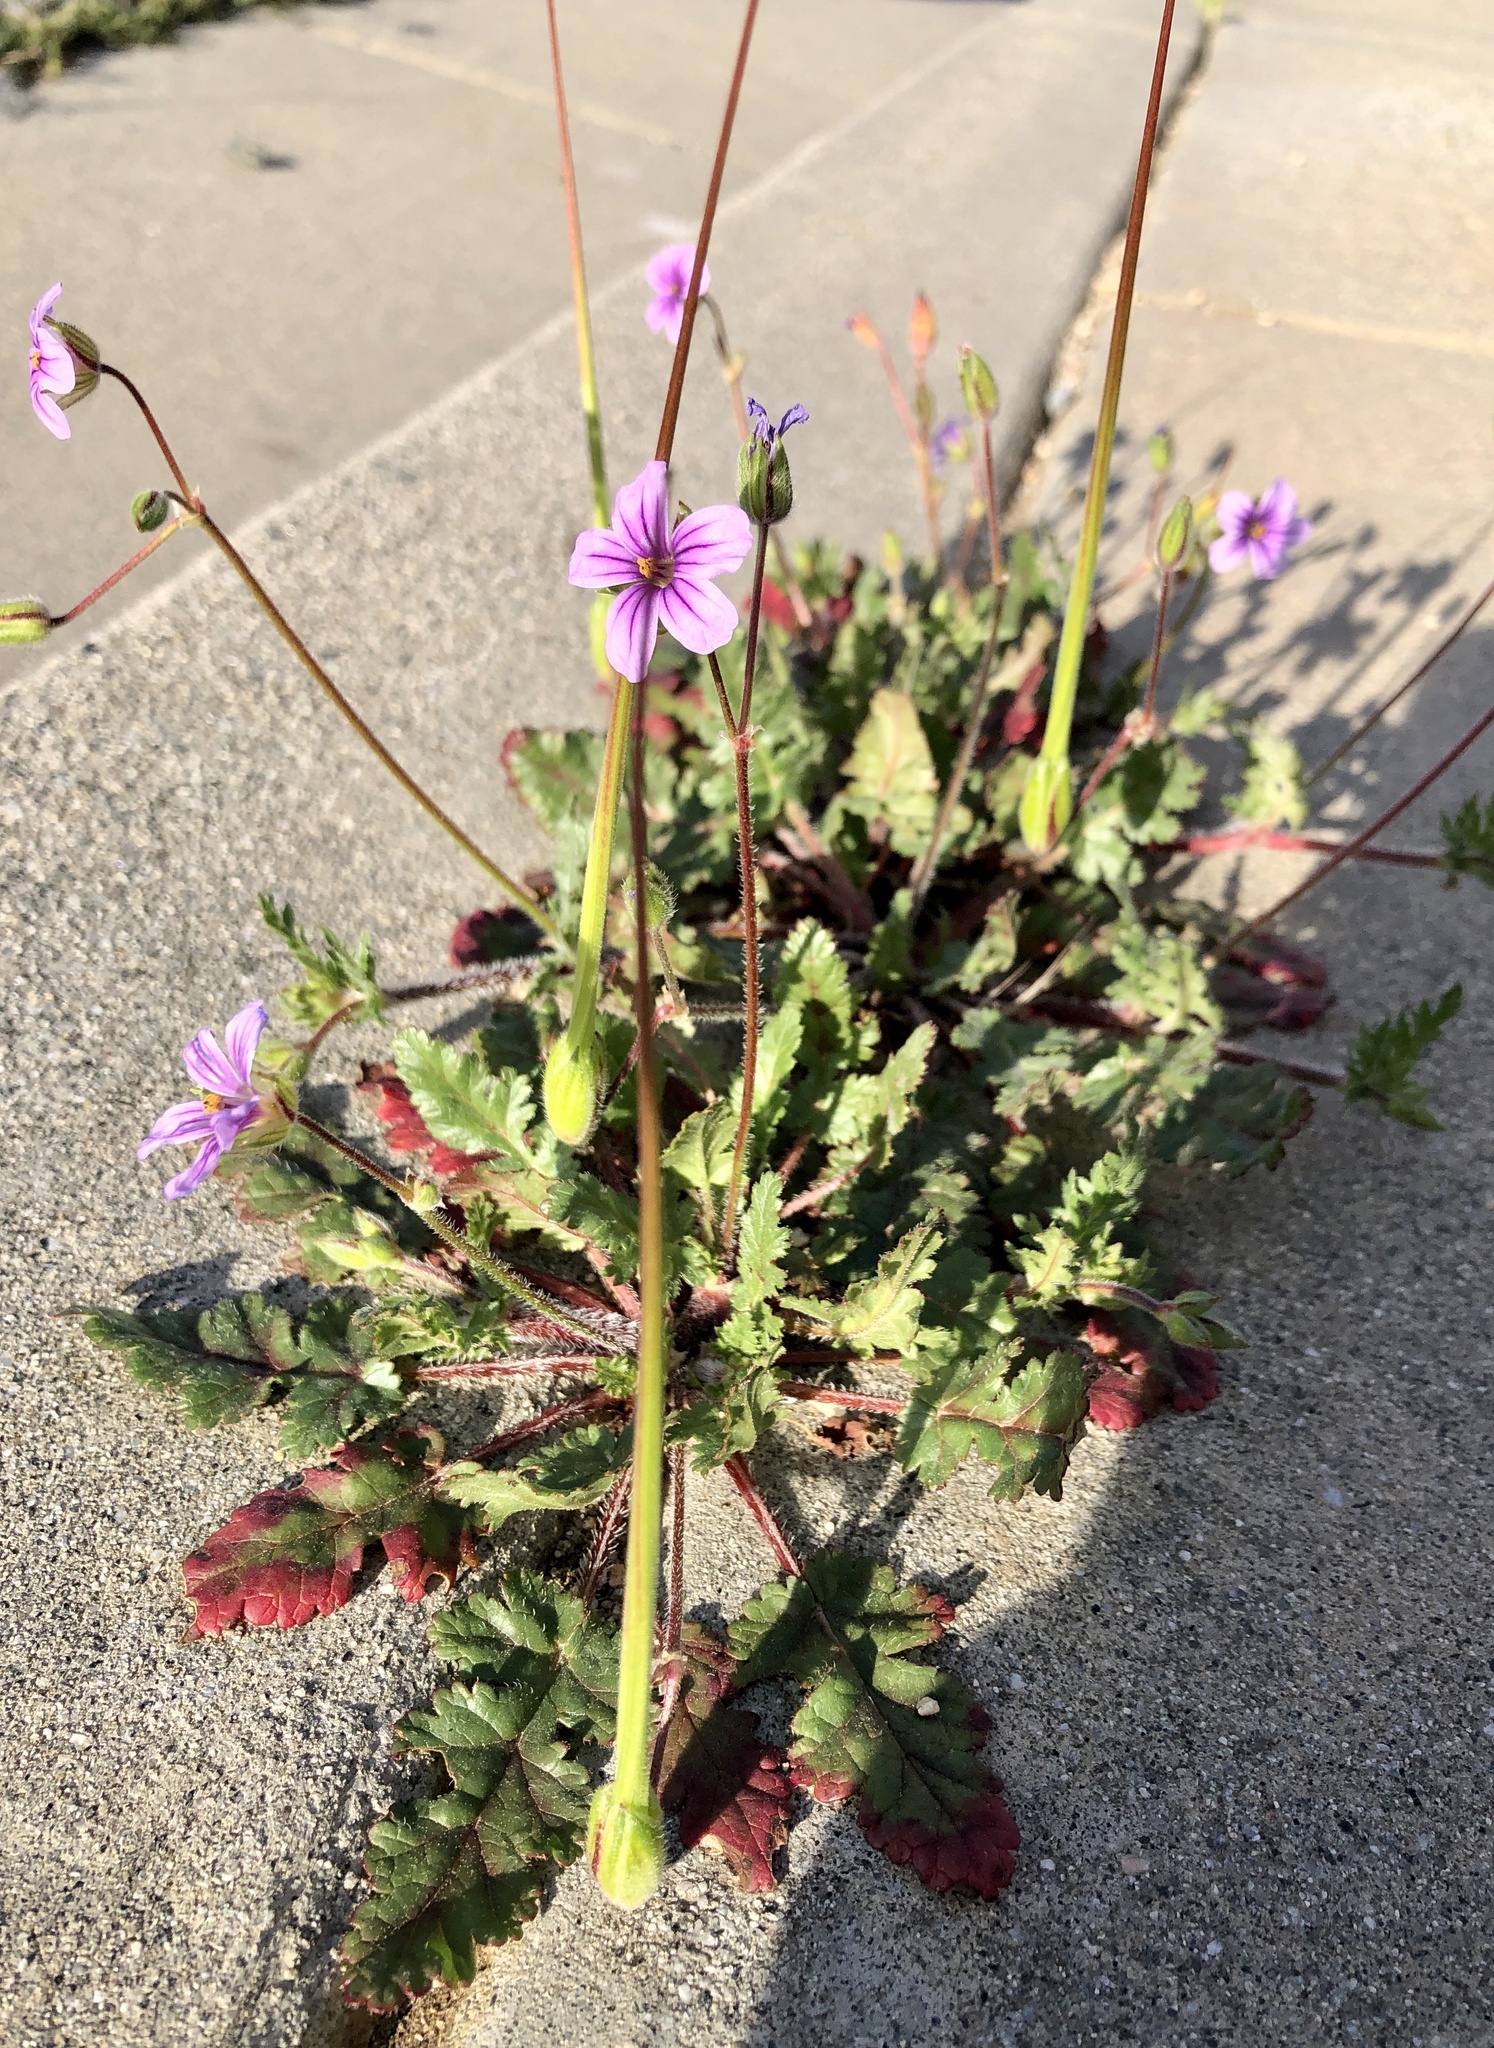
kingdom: Plantae
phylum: Tracheophyta
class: Magnoliopsida
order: Geraniales
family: Geraniaceae
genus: Erodium
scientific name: Erodium botrys
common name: Mediterranean stork's-bill
